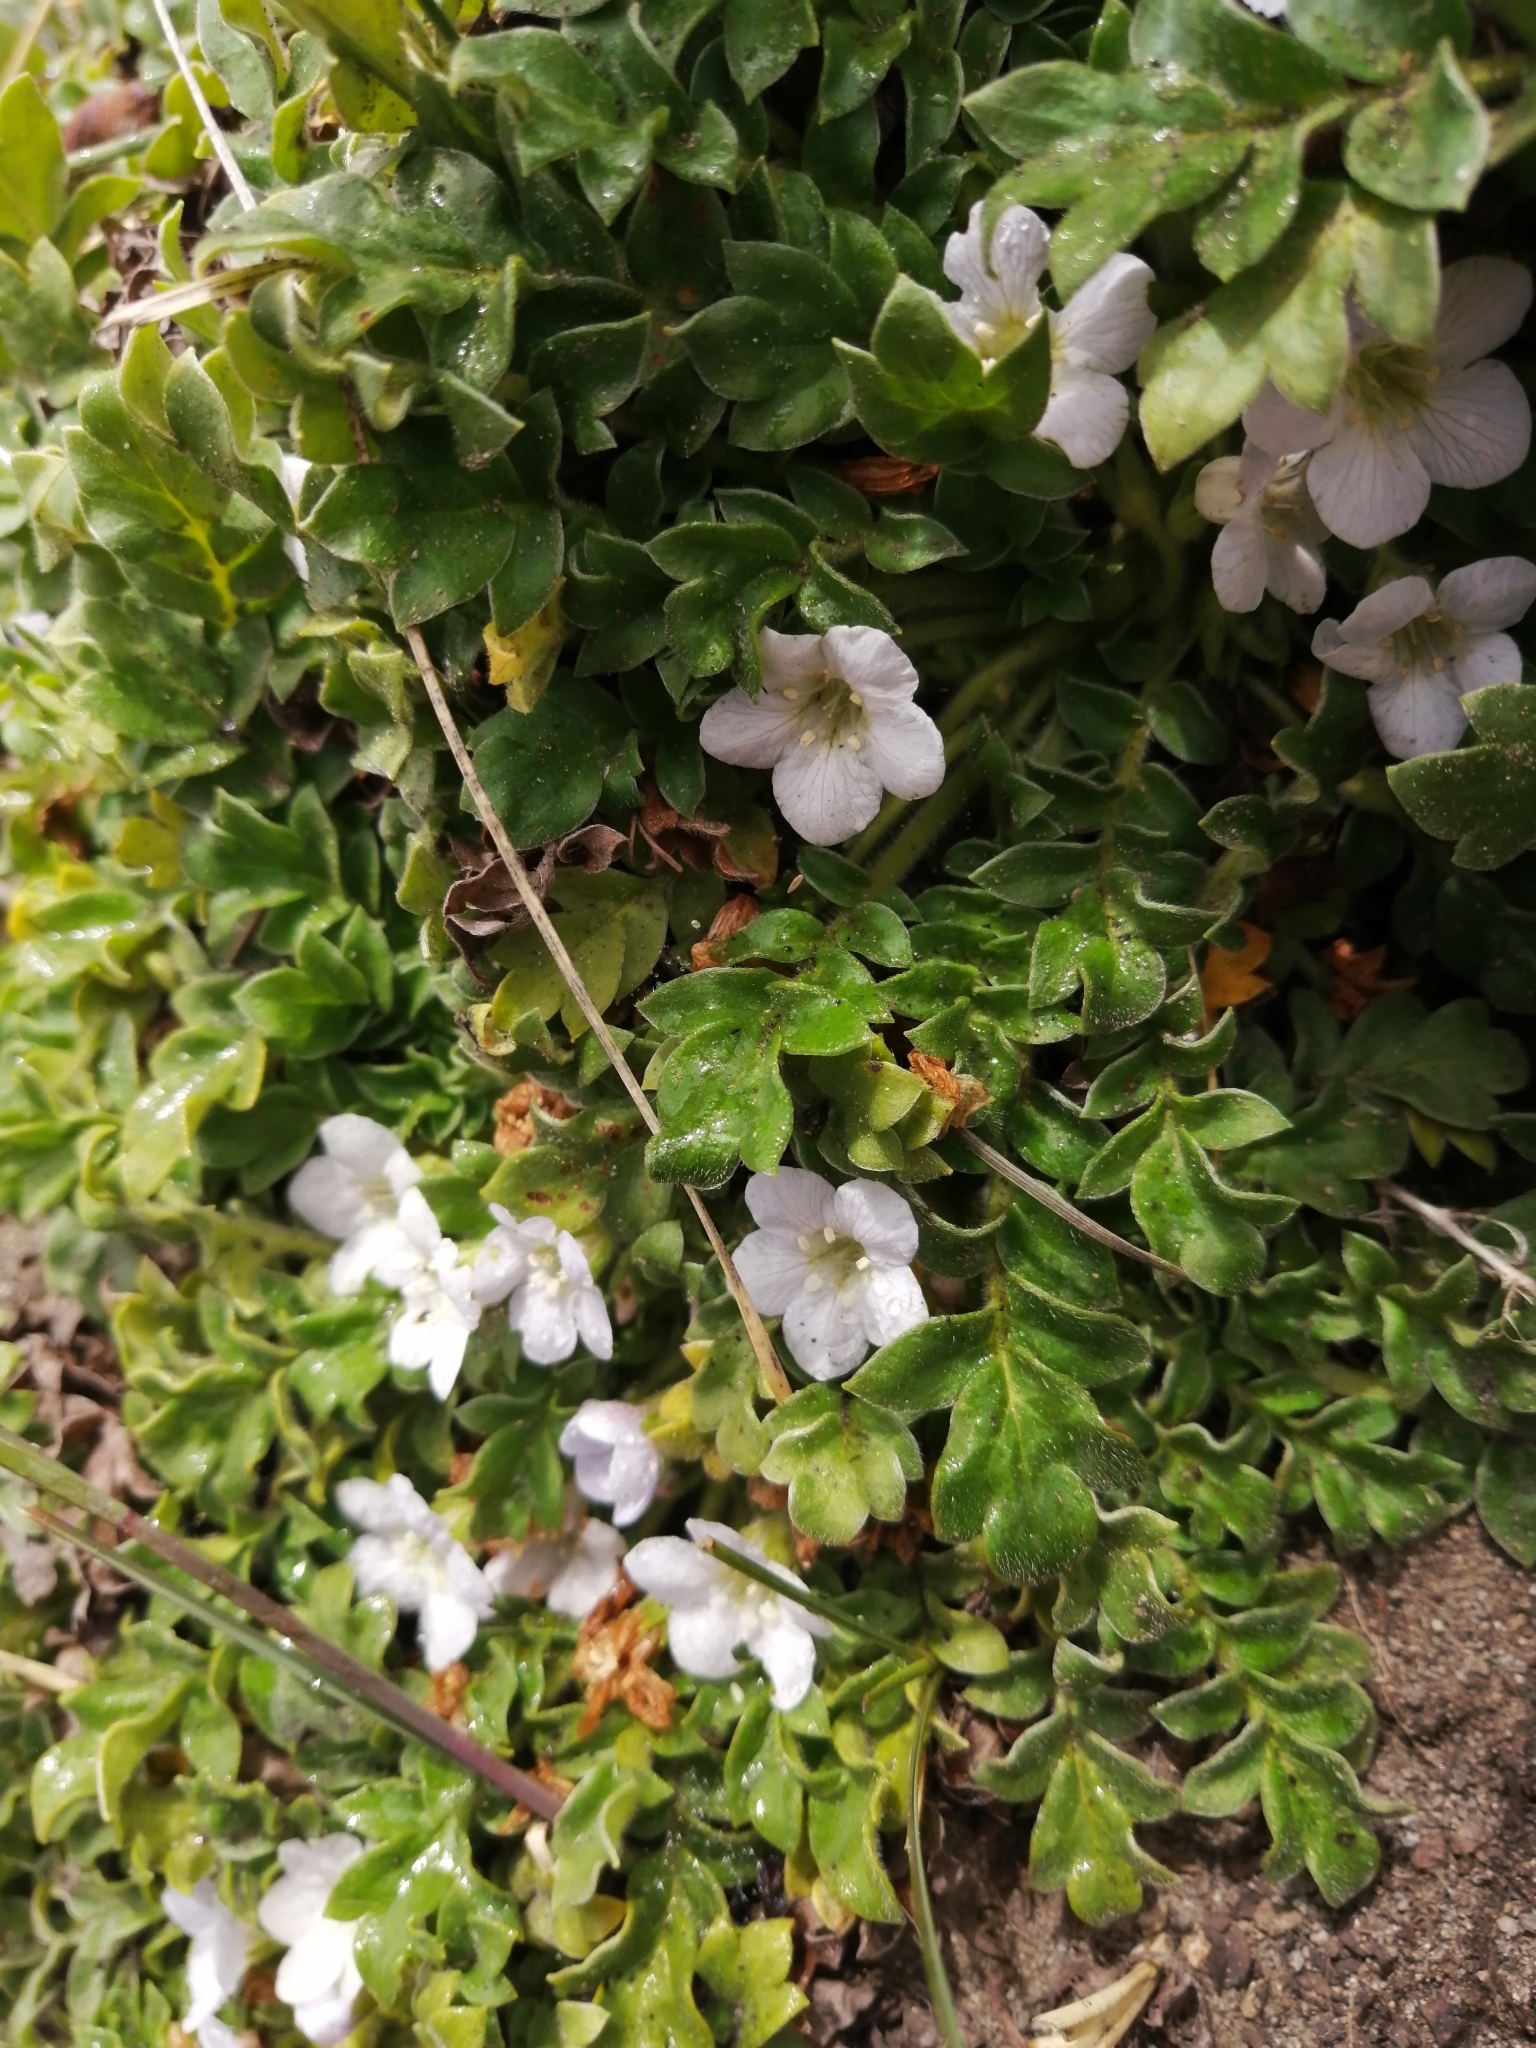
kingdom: Plantae
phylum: Tracheophyta
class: Magnoliopsida
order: Boraginales
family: Hydrophyllaceae
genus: Phacelia
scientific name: Phacelia platycarpa
